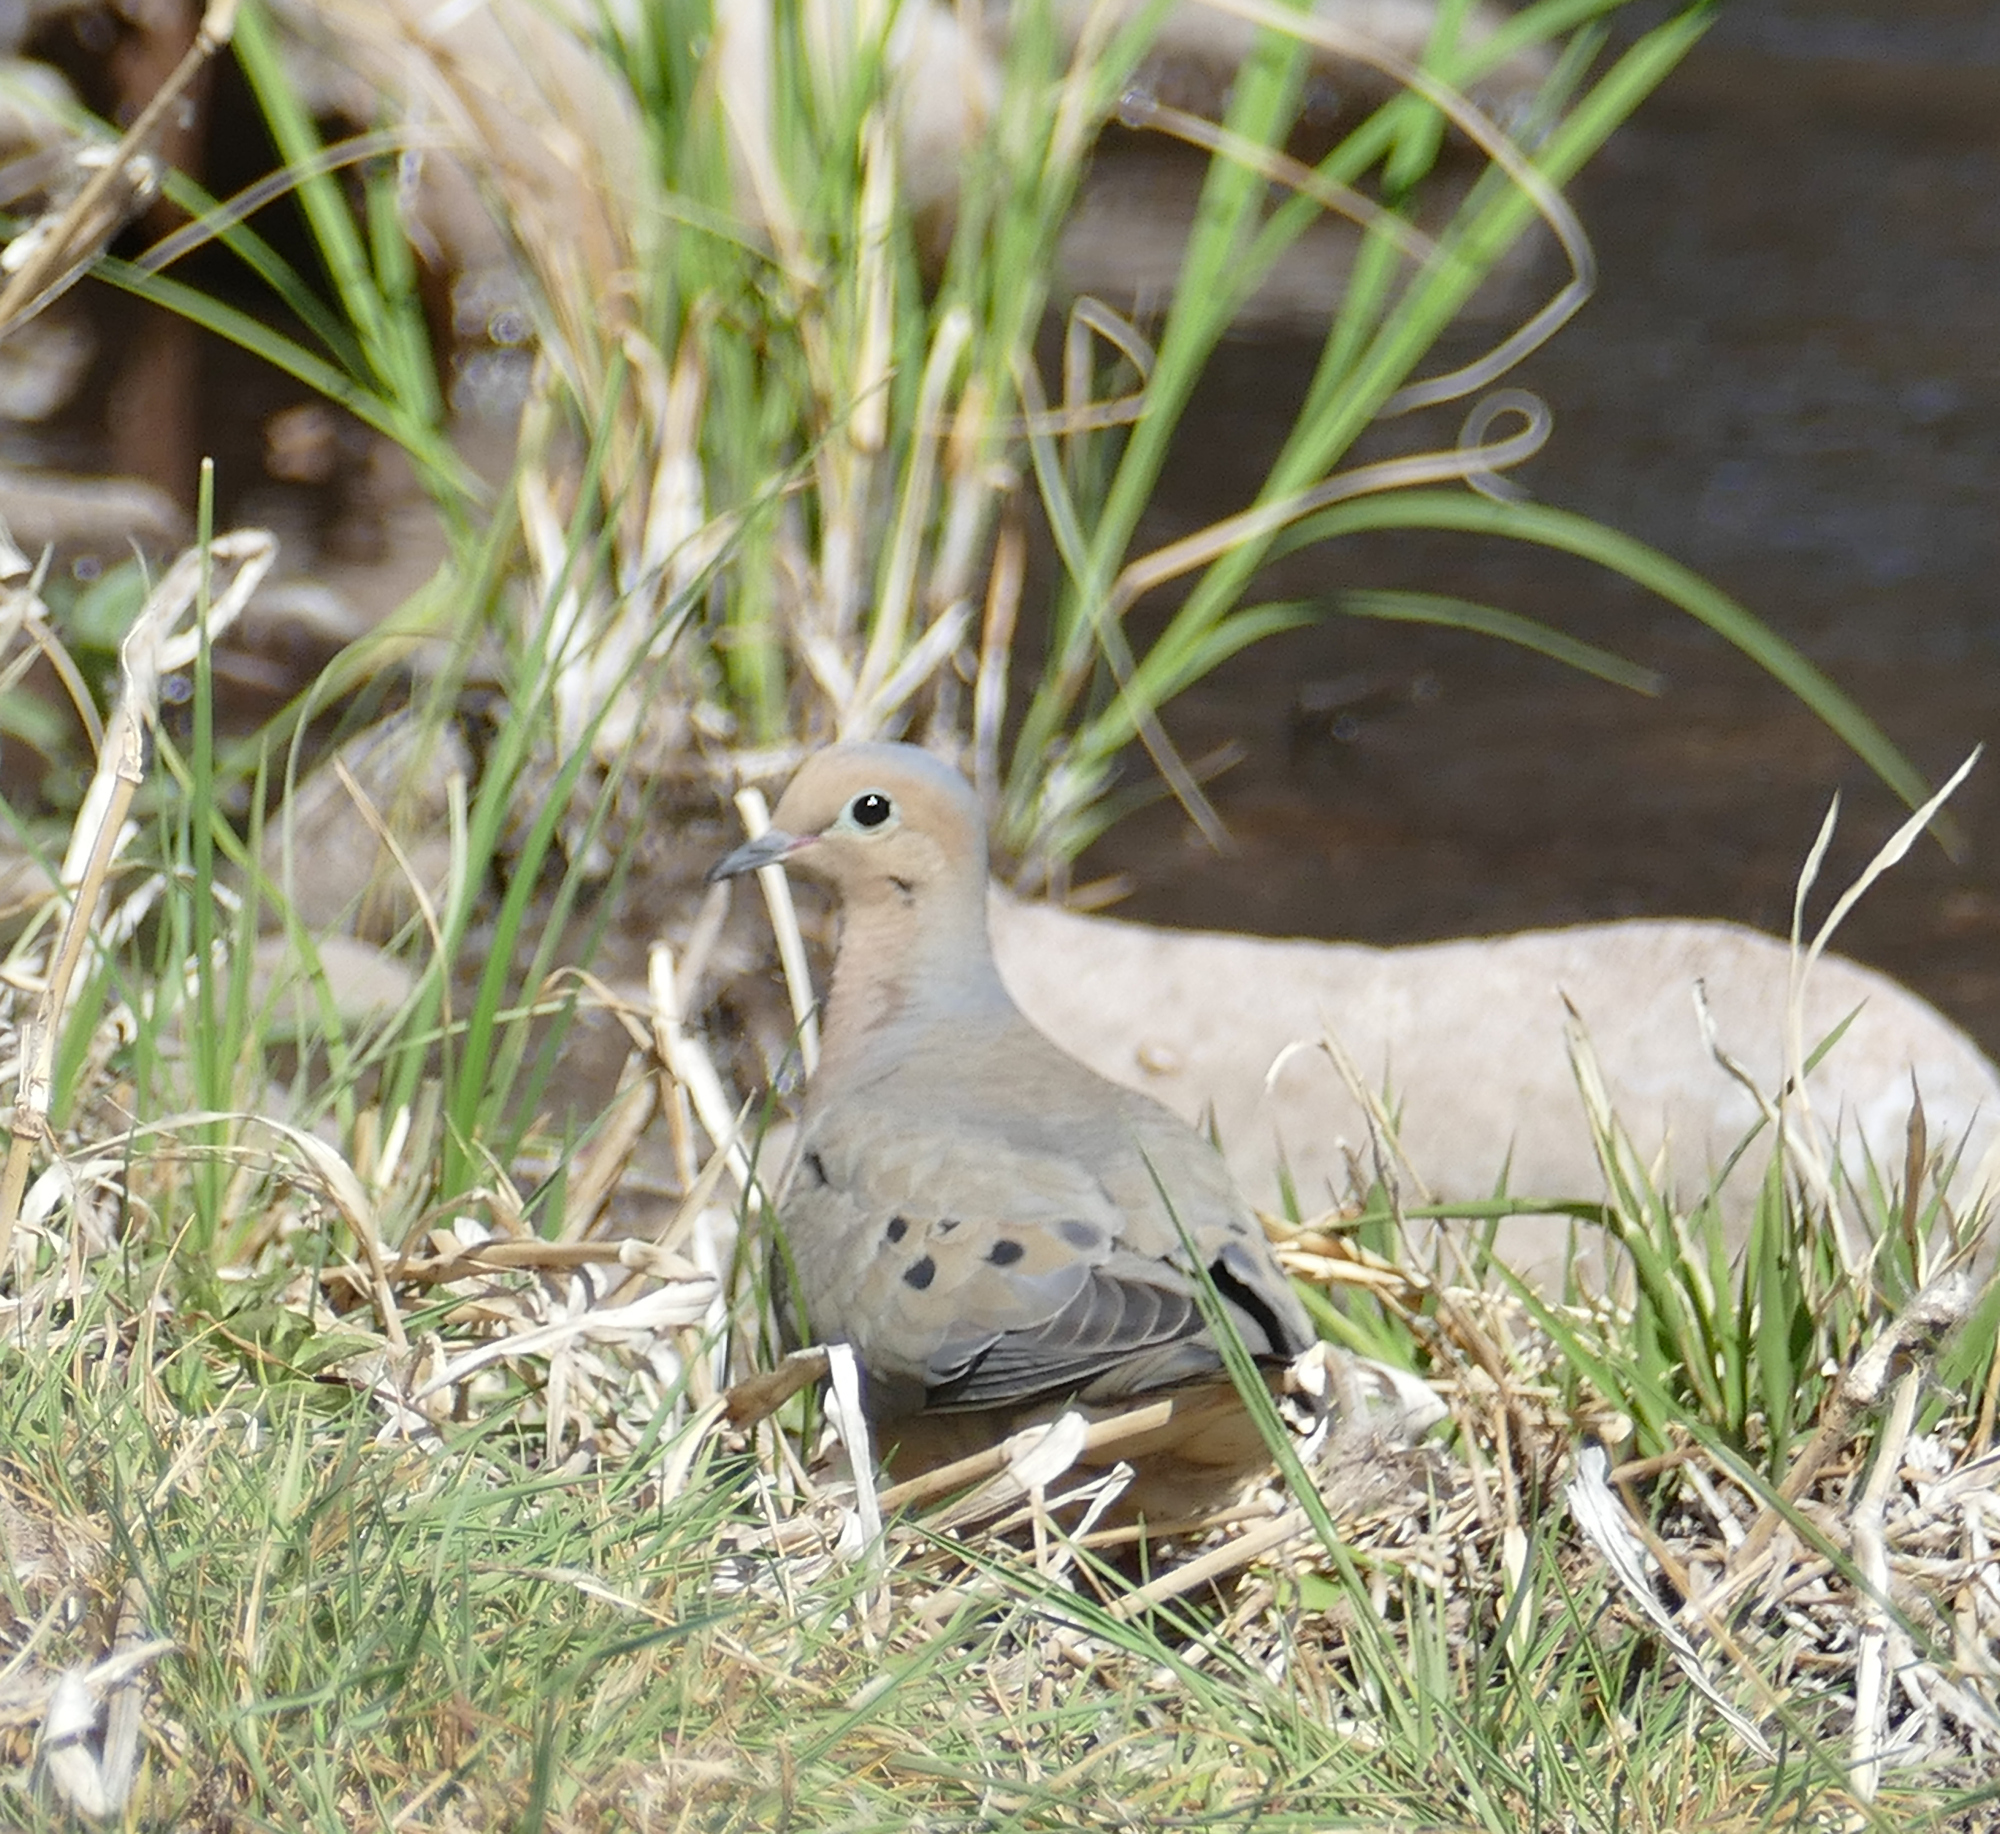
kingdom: Animalia
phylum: Chordata
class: Aves
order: Columbiformes
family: Columbidae
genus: Zenaida
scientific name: Zenaida macroura
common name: Mourning dove
